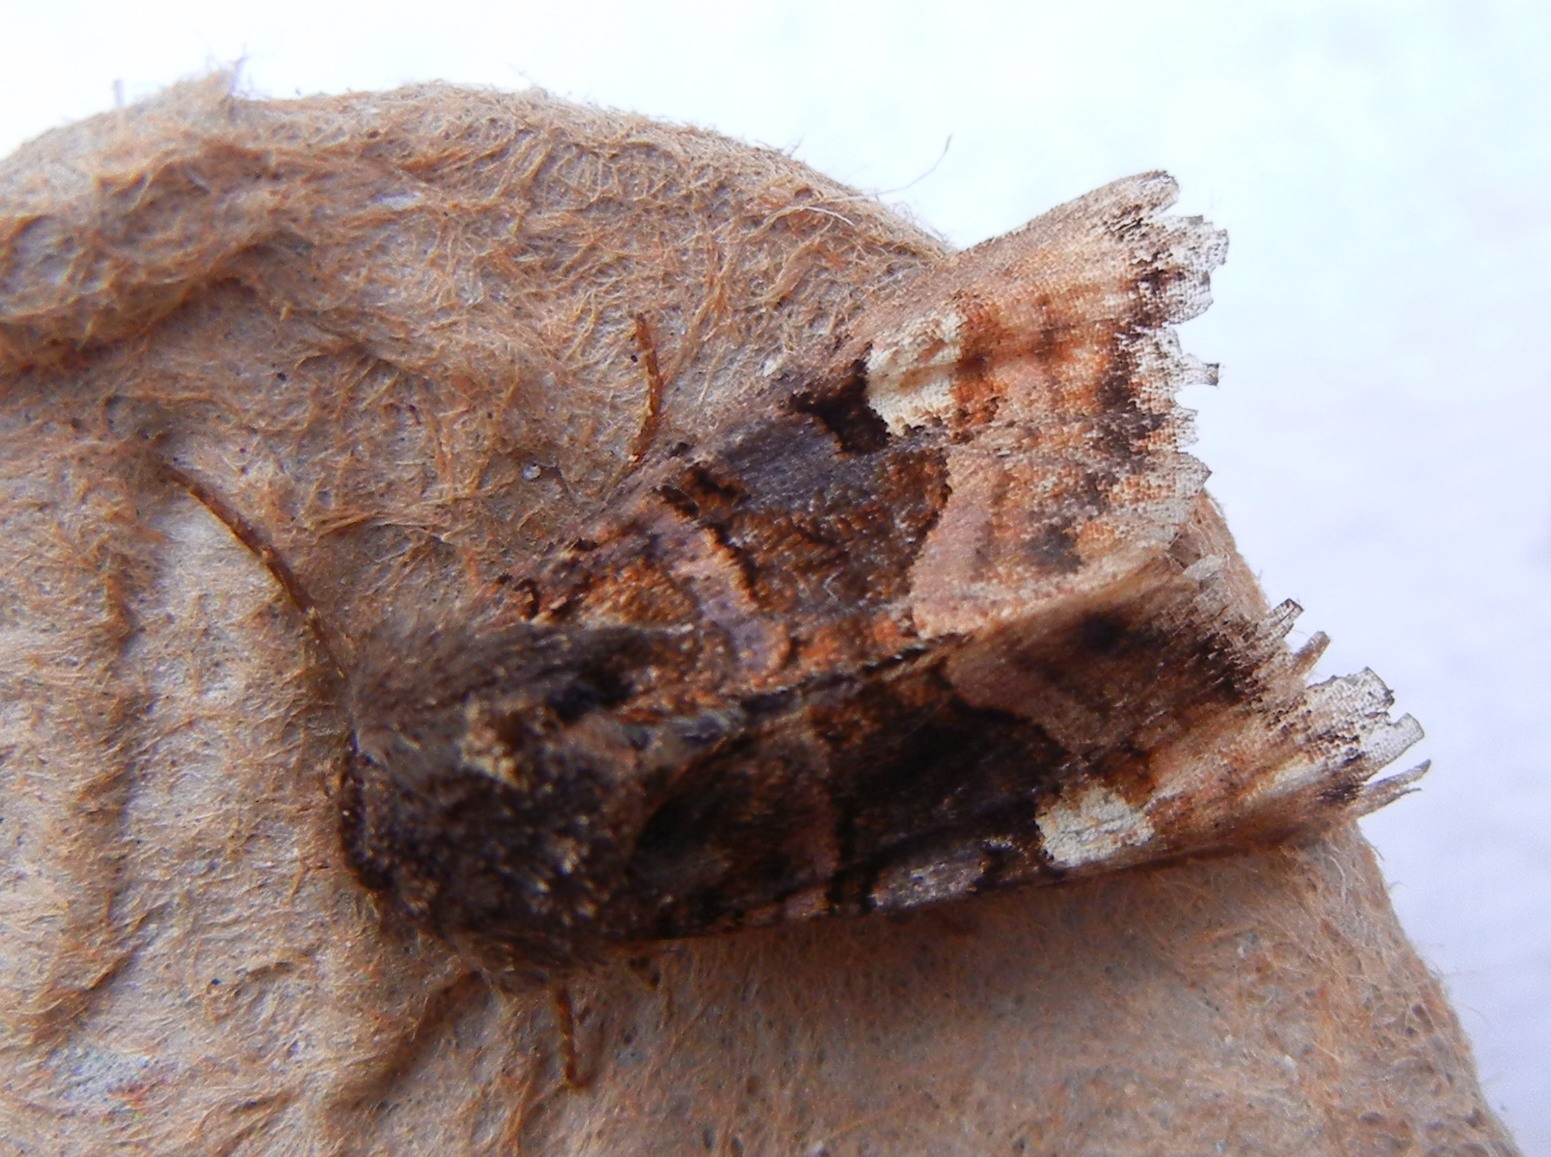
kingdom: Animalia
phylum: Arthropoda
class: Insecta
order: Lepidoptera
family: Noctuidae
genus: Euplexia
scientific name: Euplexia lucipara
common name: Small angle shades
